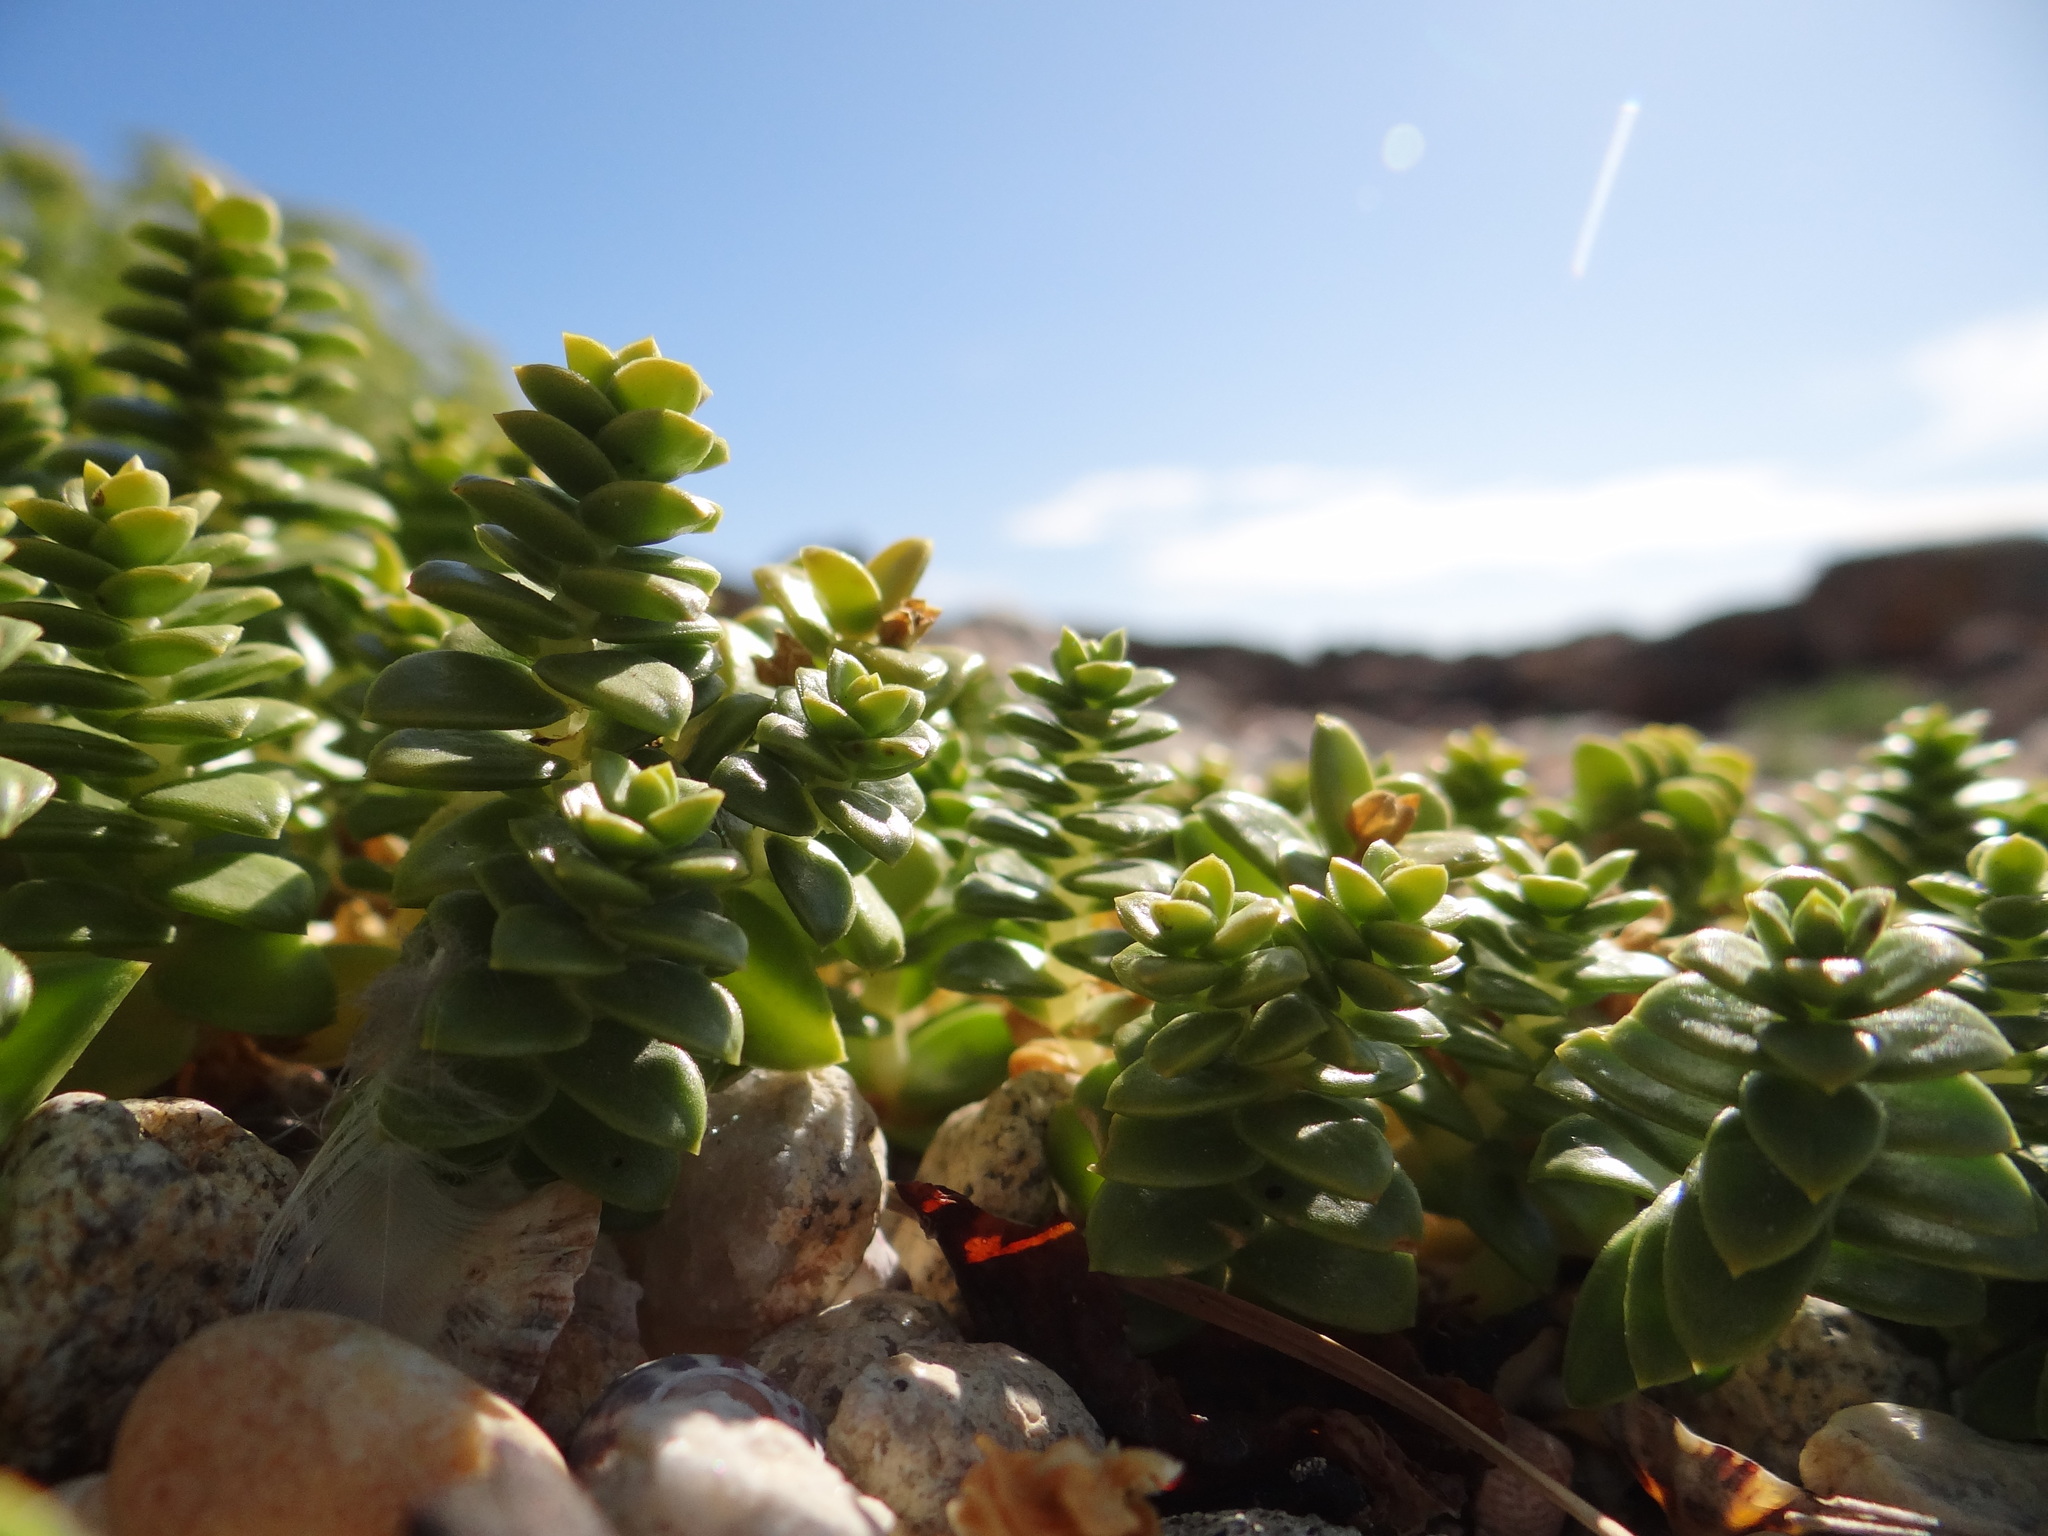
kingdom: Plantae
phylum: Tracheophyta
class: Magnoliopsida
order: Caryophyllales
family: Caryophyllaceae
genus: Honckenya
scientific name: Honckenya peploides
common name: Sea sandwort
